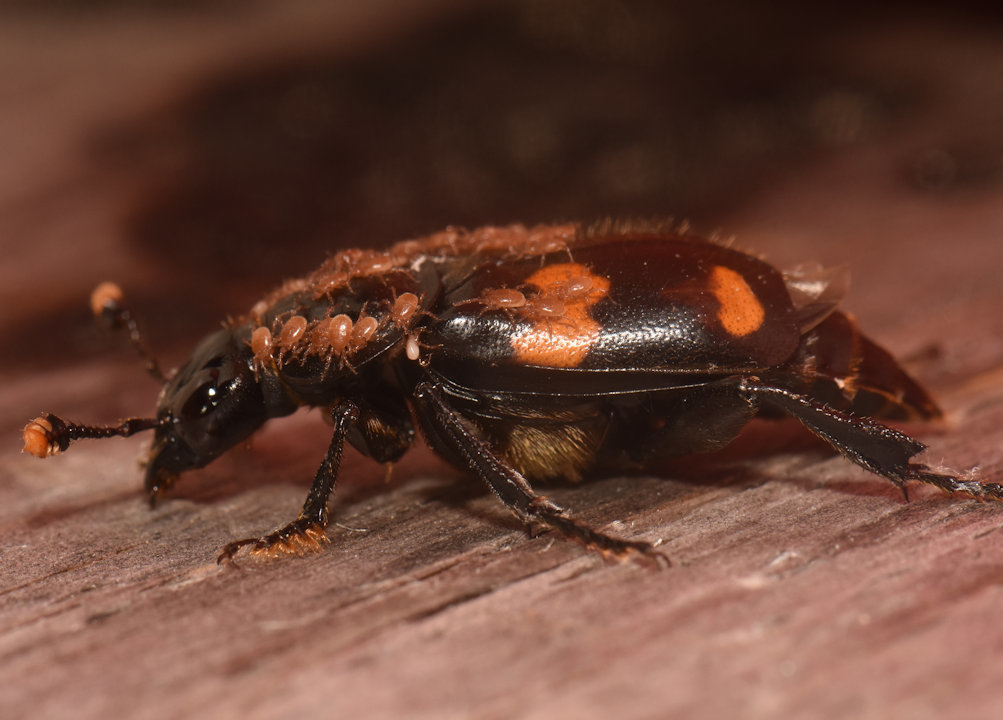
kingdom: Animalia
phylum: Arthropoda
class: Insecta
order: Coleoptera
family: Staphylinidae
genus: Nicrophorus
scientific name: Nicrophorus orbicollis
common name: Roundneck sexton beetle
